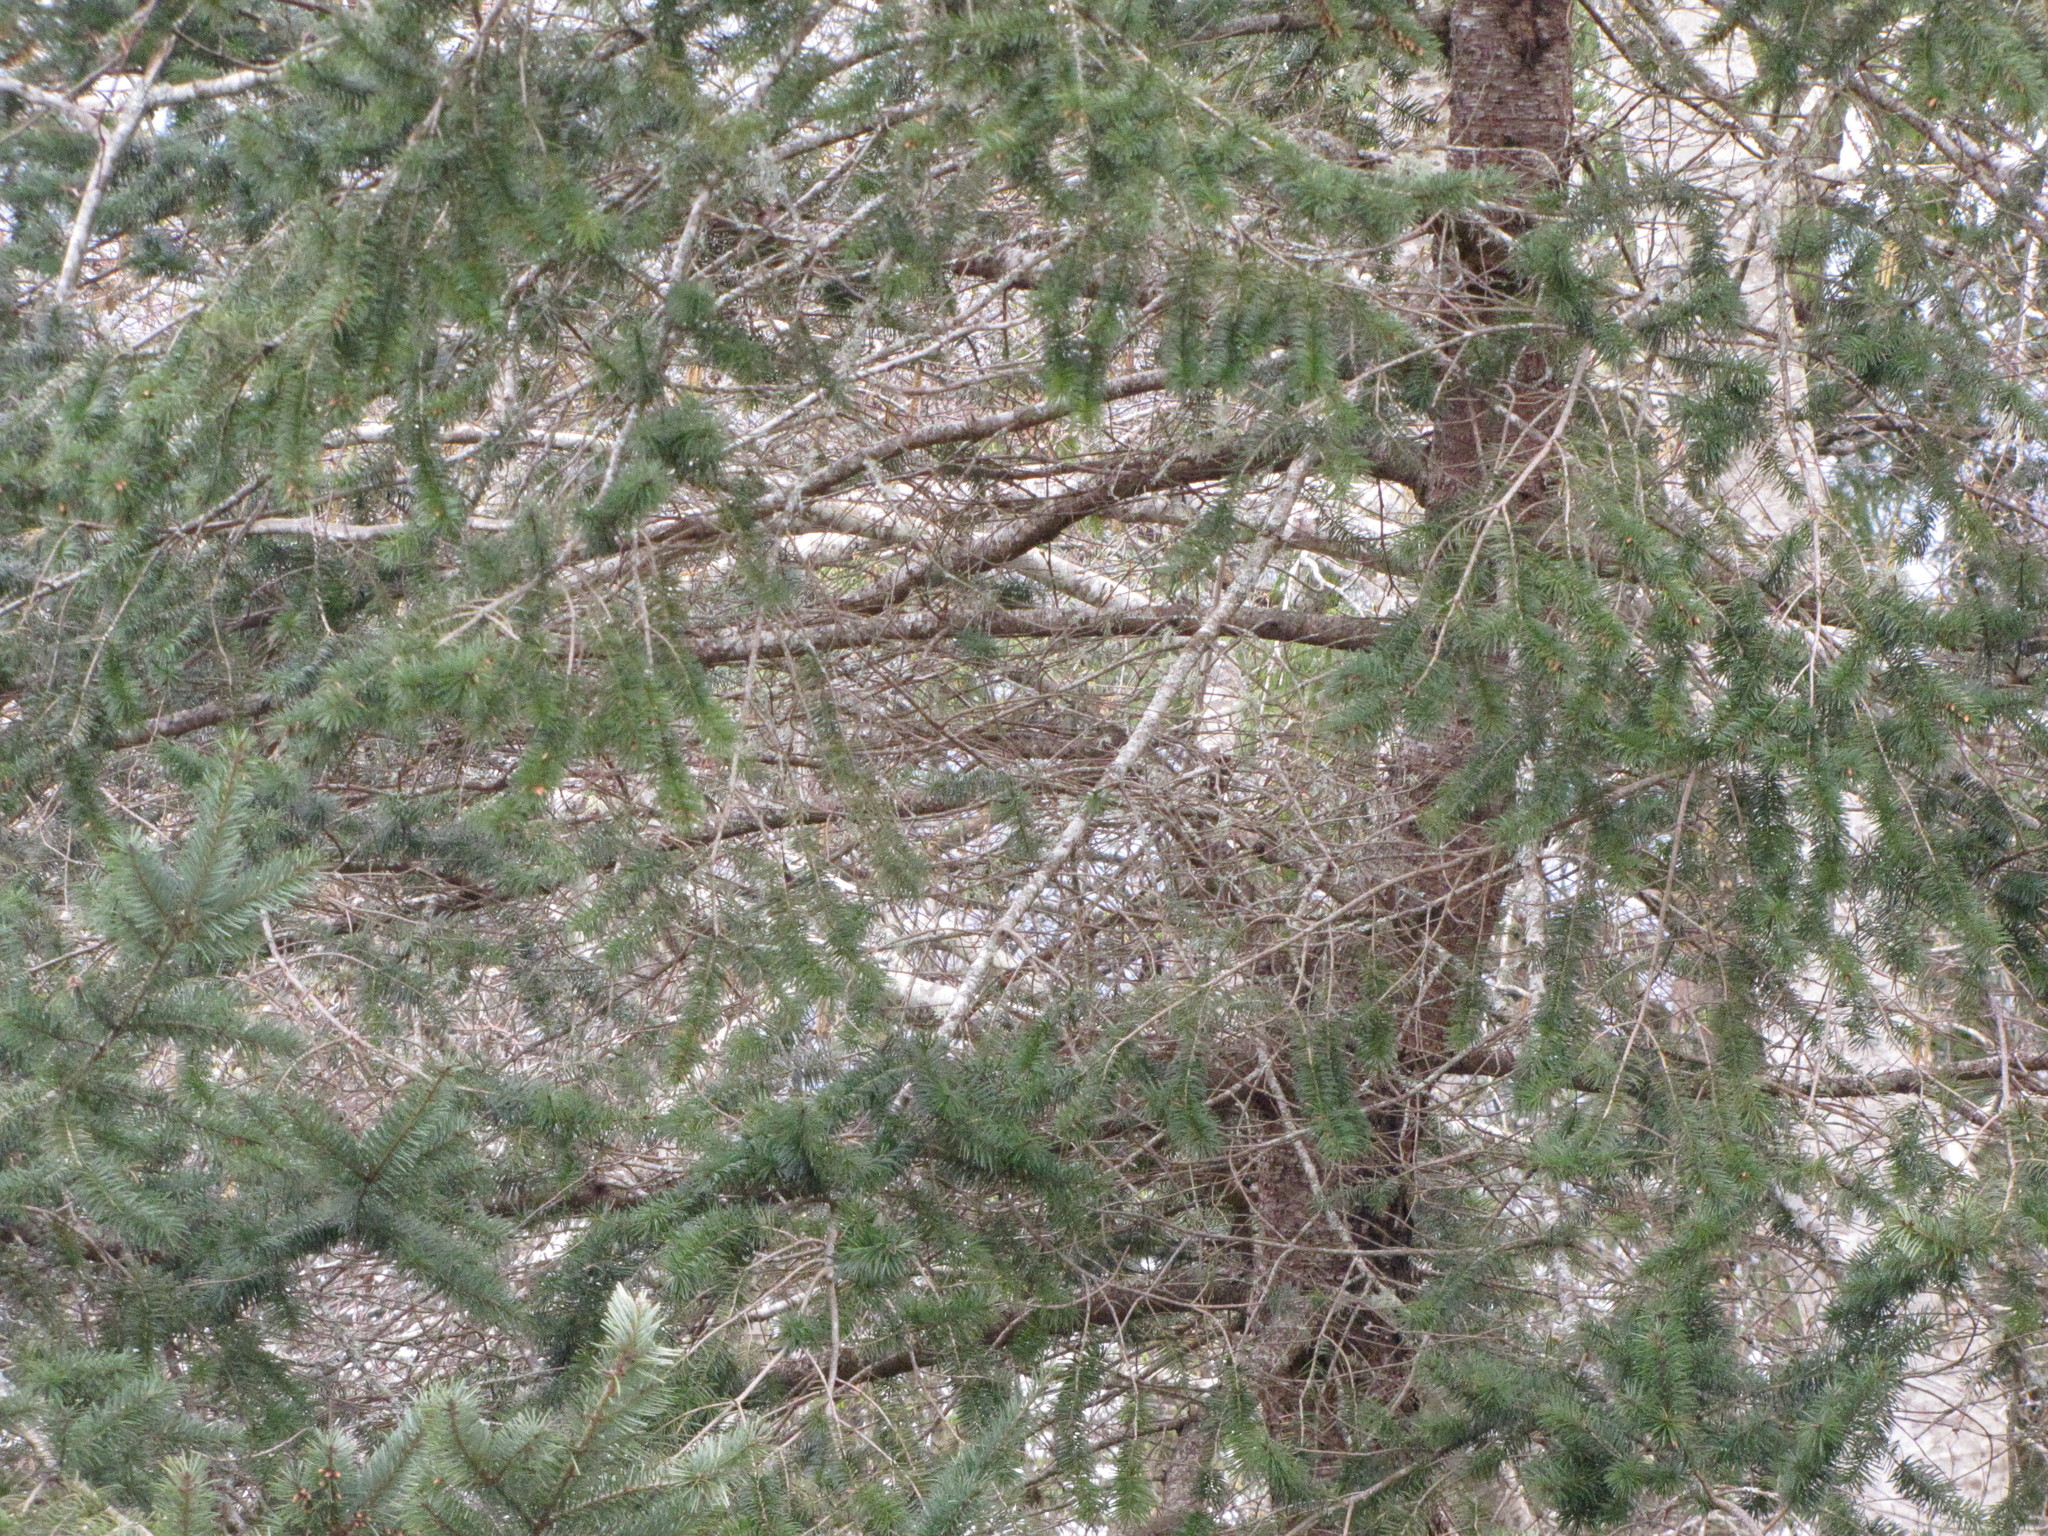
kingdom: Plantae
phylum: Tracheophyta
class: Pinopsida
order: Pinales
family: Pinaceae
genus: Pseudotsuga
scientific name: Pseudotsuga menziesii
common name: Douglas fir
